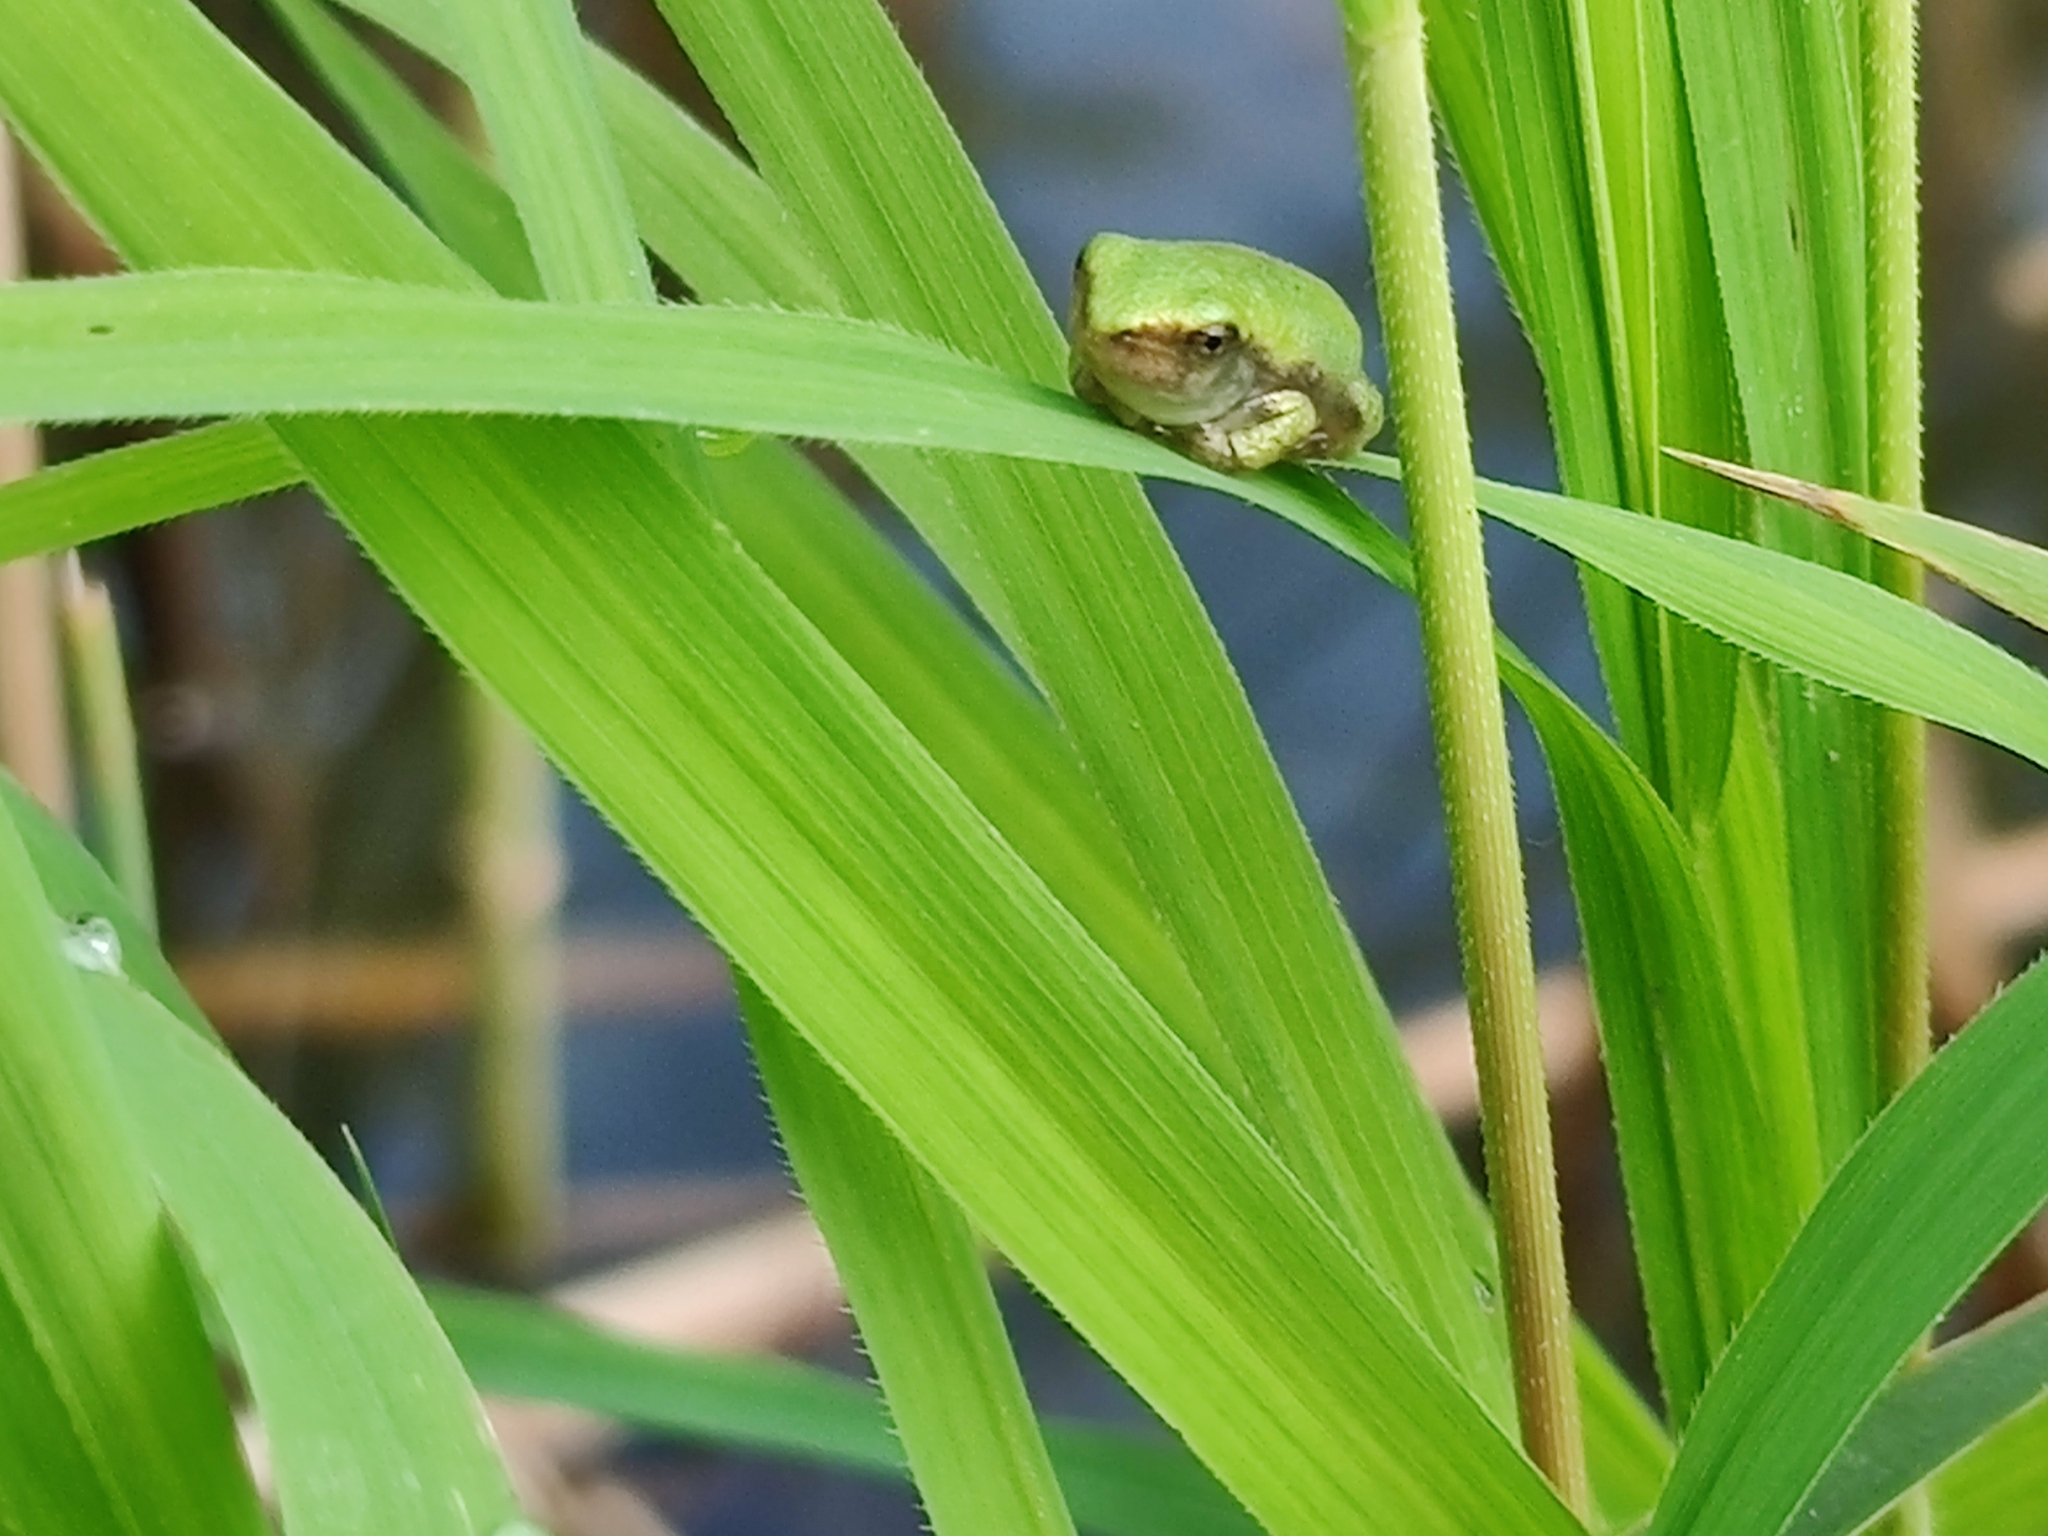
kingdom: Animalia
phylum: Chordata
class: Amphibia
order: Anura
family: Hylidae
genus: Dryophytes
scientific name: Dryophytes versicolor
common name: Gray treefrog
